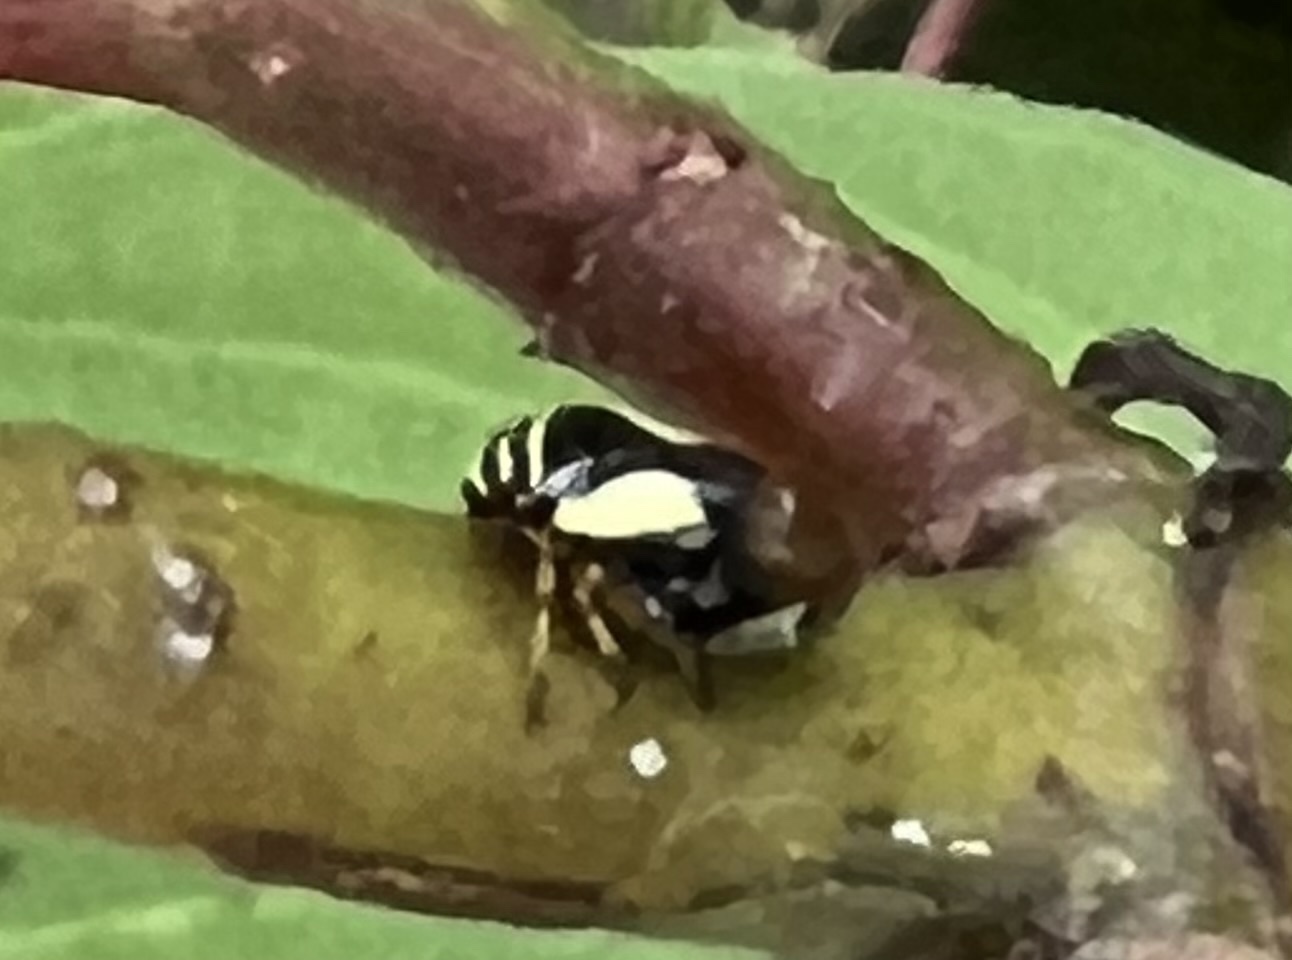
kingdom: Animalia
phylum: Arthropoda
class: Insecta
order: Hemiptera
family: Clastopteridae
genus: Clastoptera
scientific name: Clastoptera proteus
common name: Dogwood spittlebug
